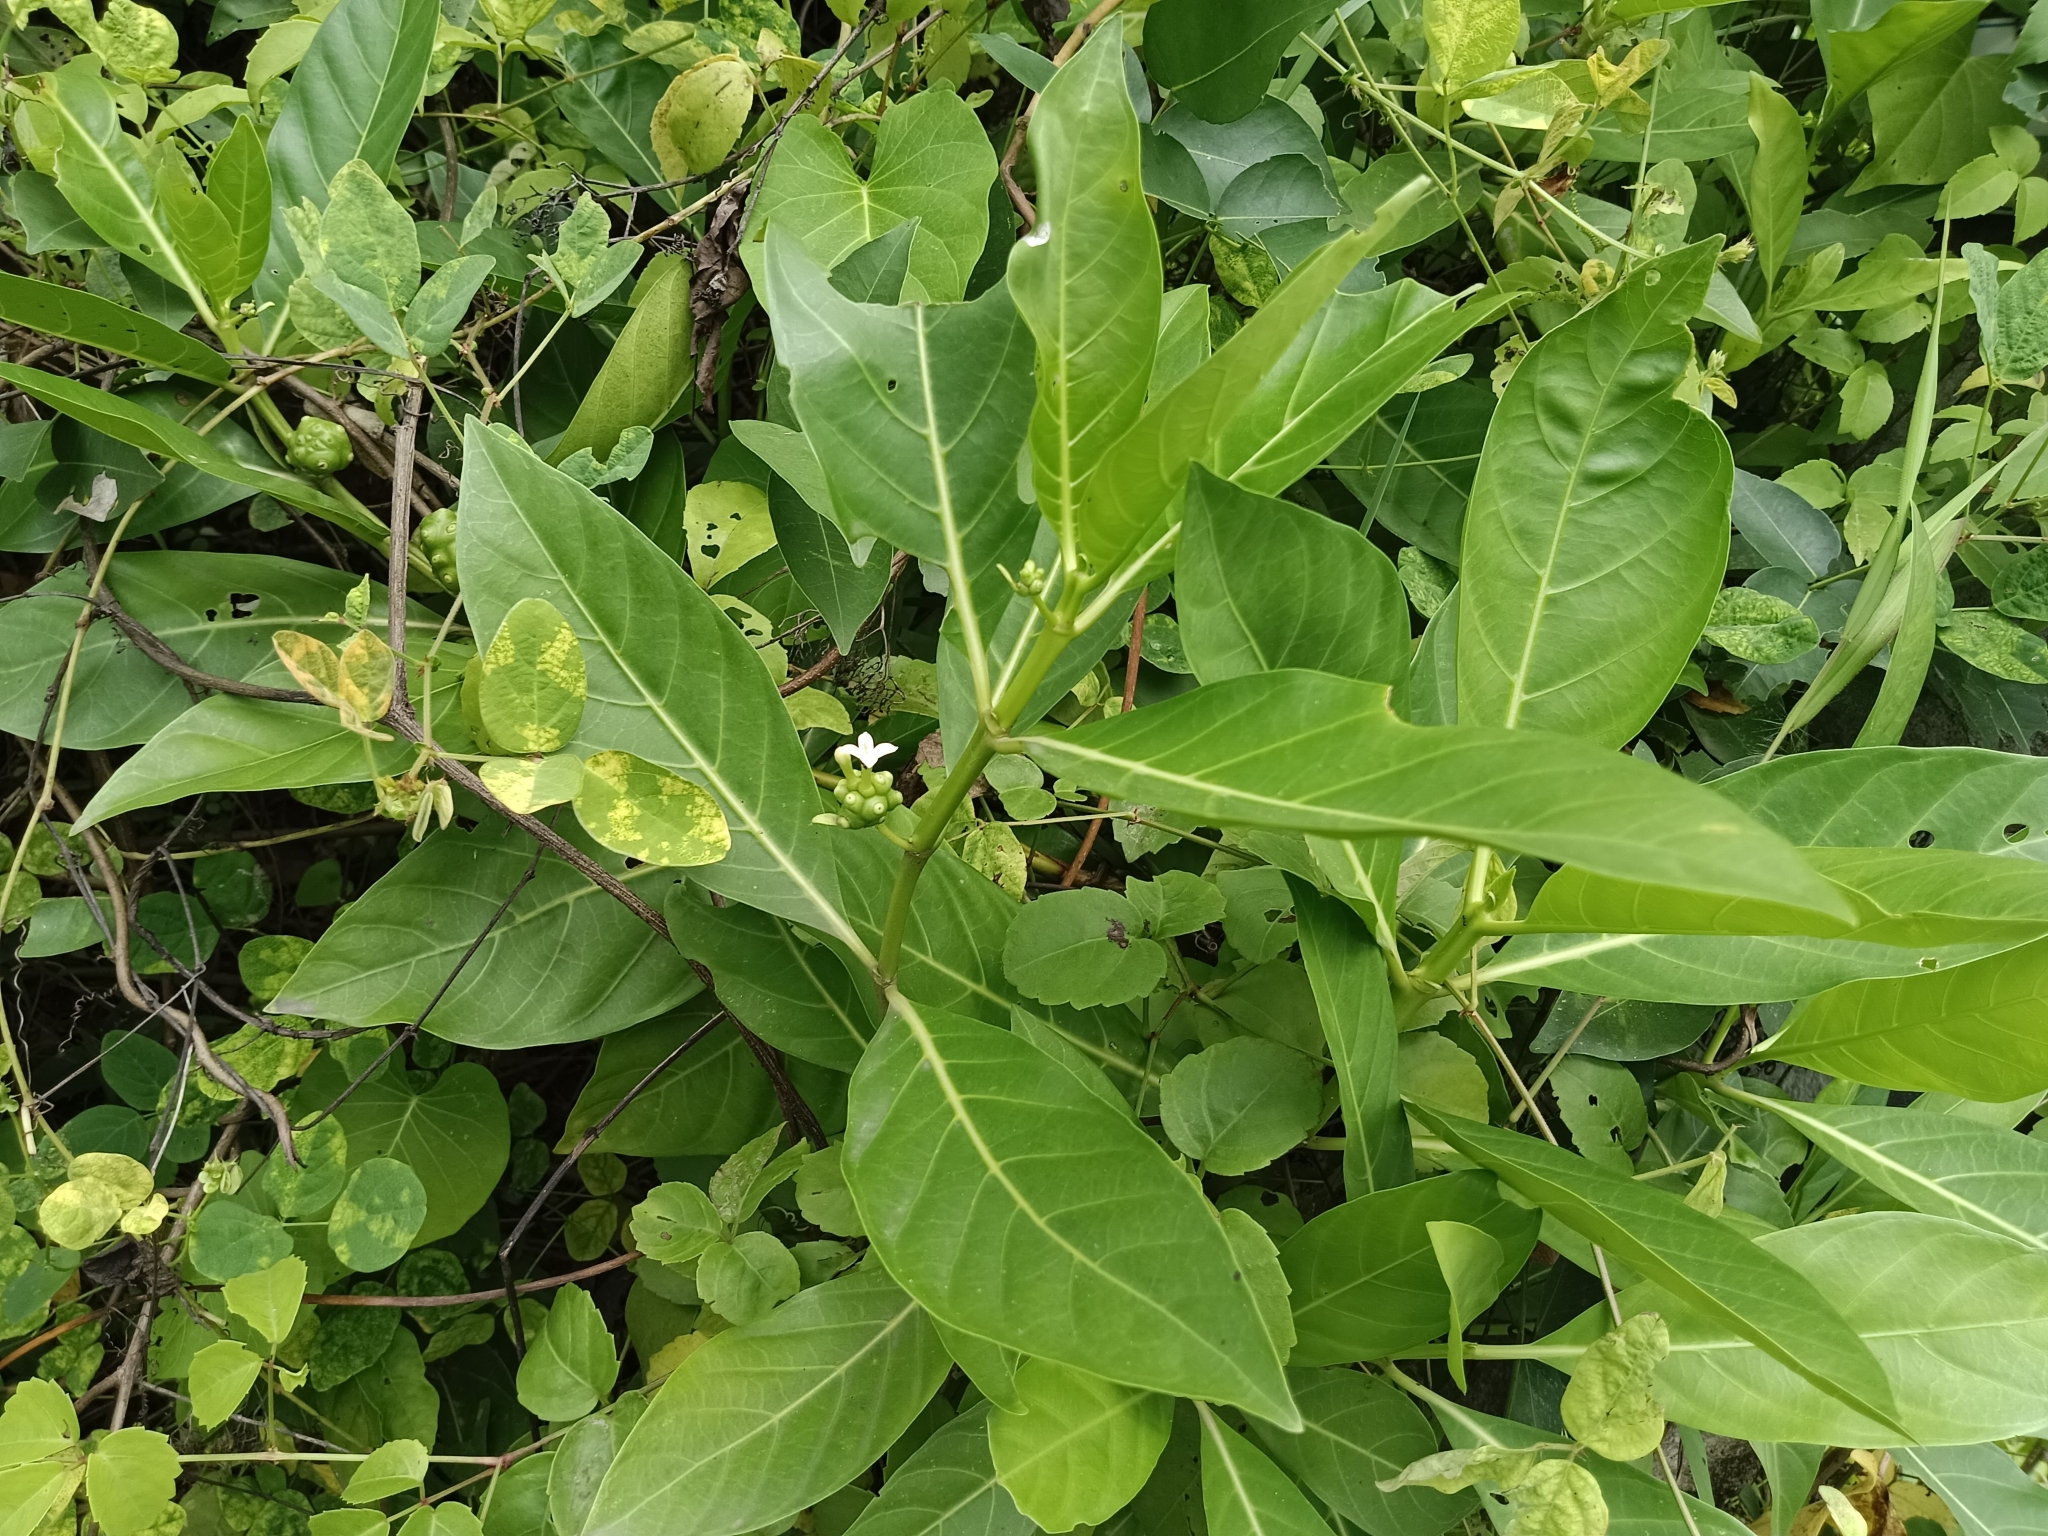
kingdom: Plantae
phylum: Tracheophyta
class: Magnoliopsida
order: Gentianales
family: Rubiaceae
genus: Morinda
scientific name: Morinda citrifolia
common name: Indian-mulberry
